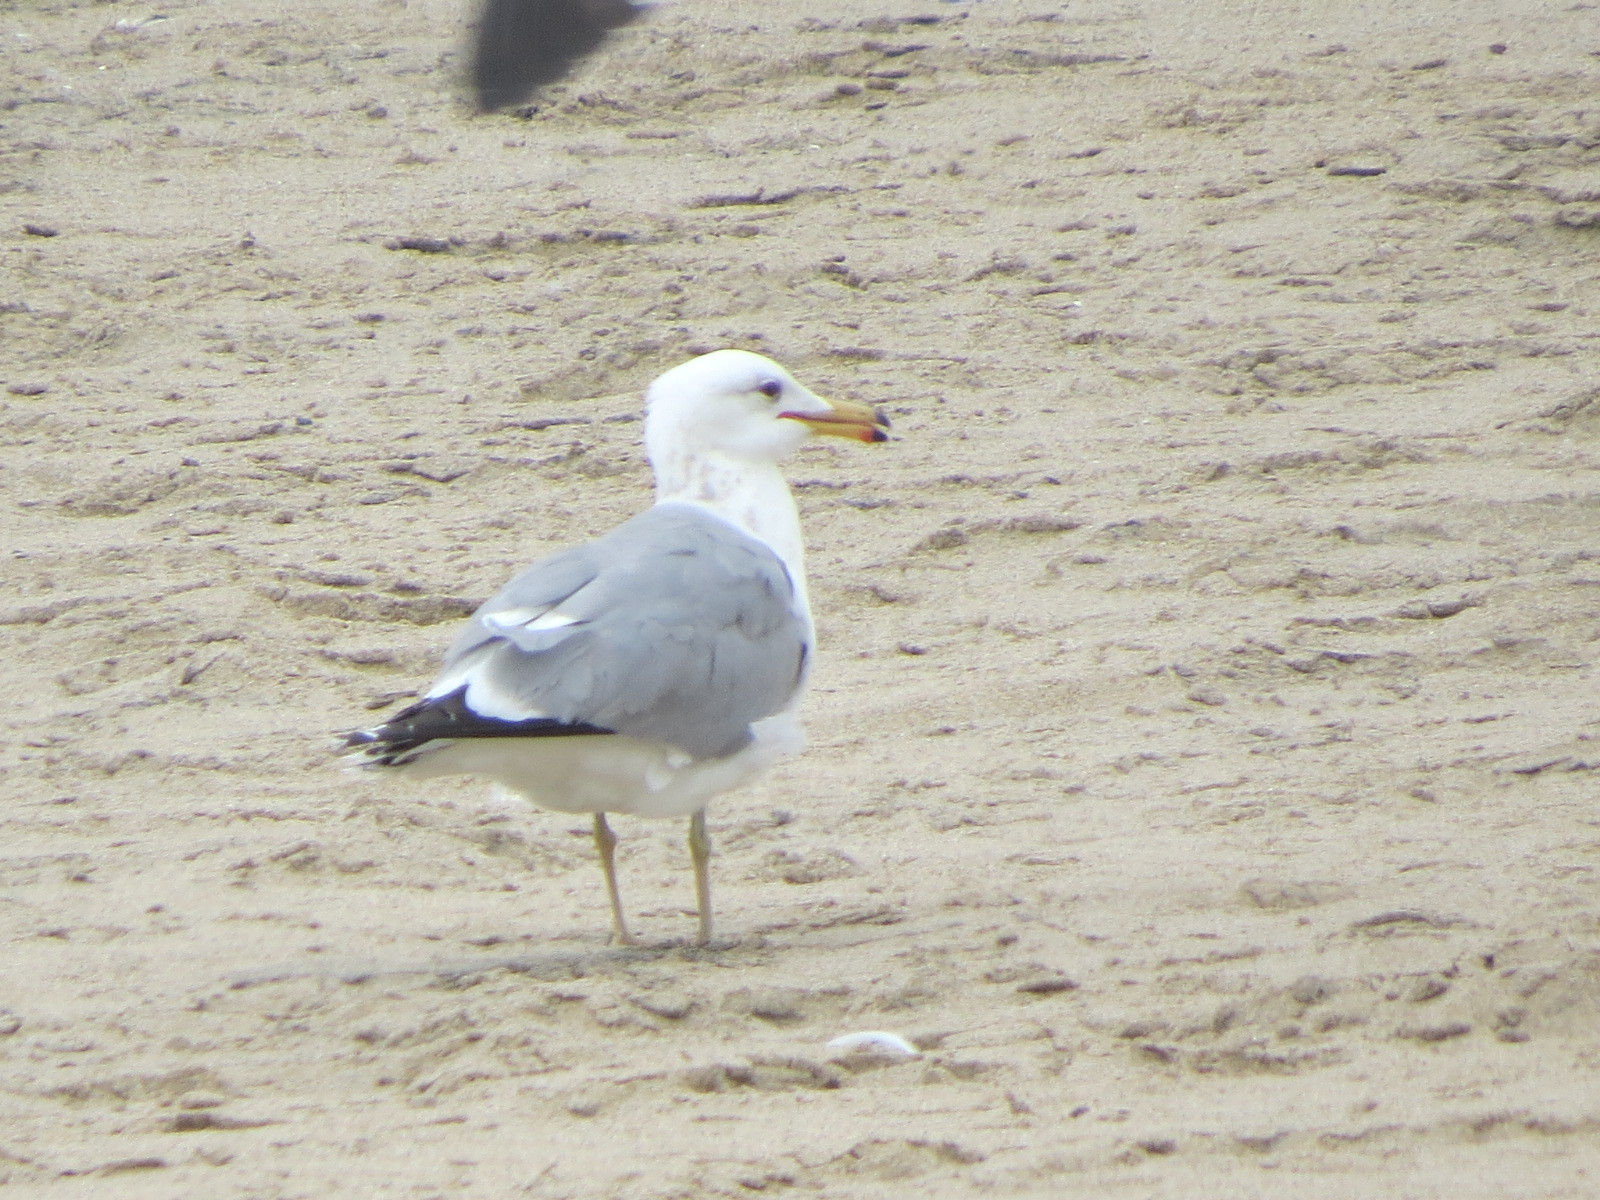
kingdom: Animalia
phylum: Chordata
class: Aves
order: Charadriiformes
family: Laridae
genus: Larus
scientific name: Larus californicus
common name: California gull
